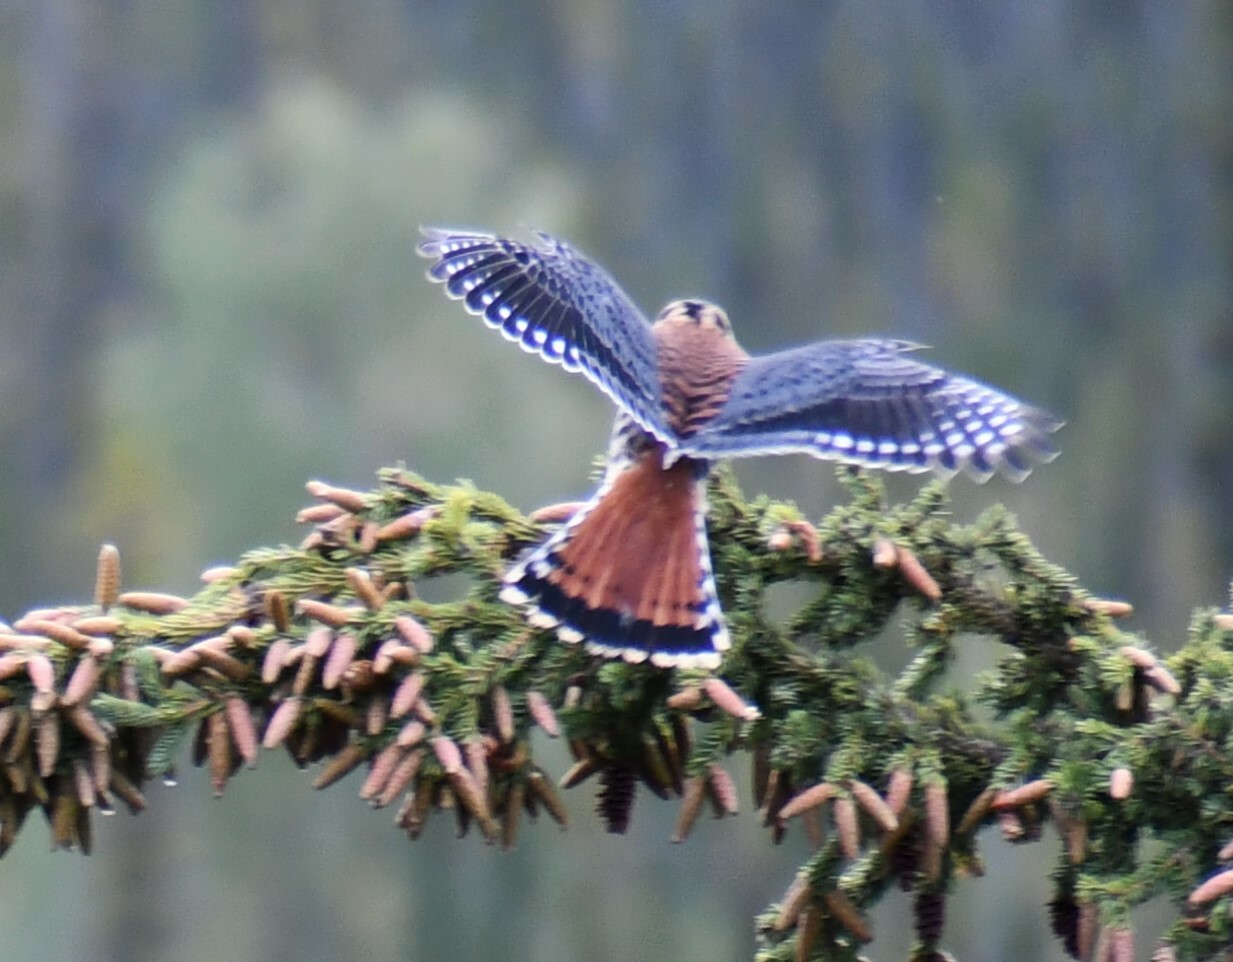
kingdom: Animalia
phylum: Chordata
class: Aves
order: Falconiformes
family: Falconidae
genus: Falco
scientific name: Falco sparverius
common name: American kestrel
